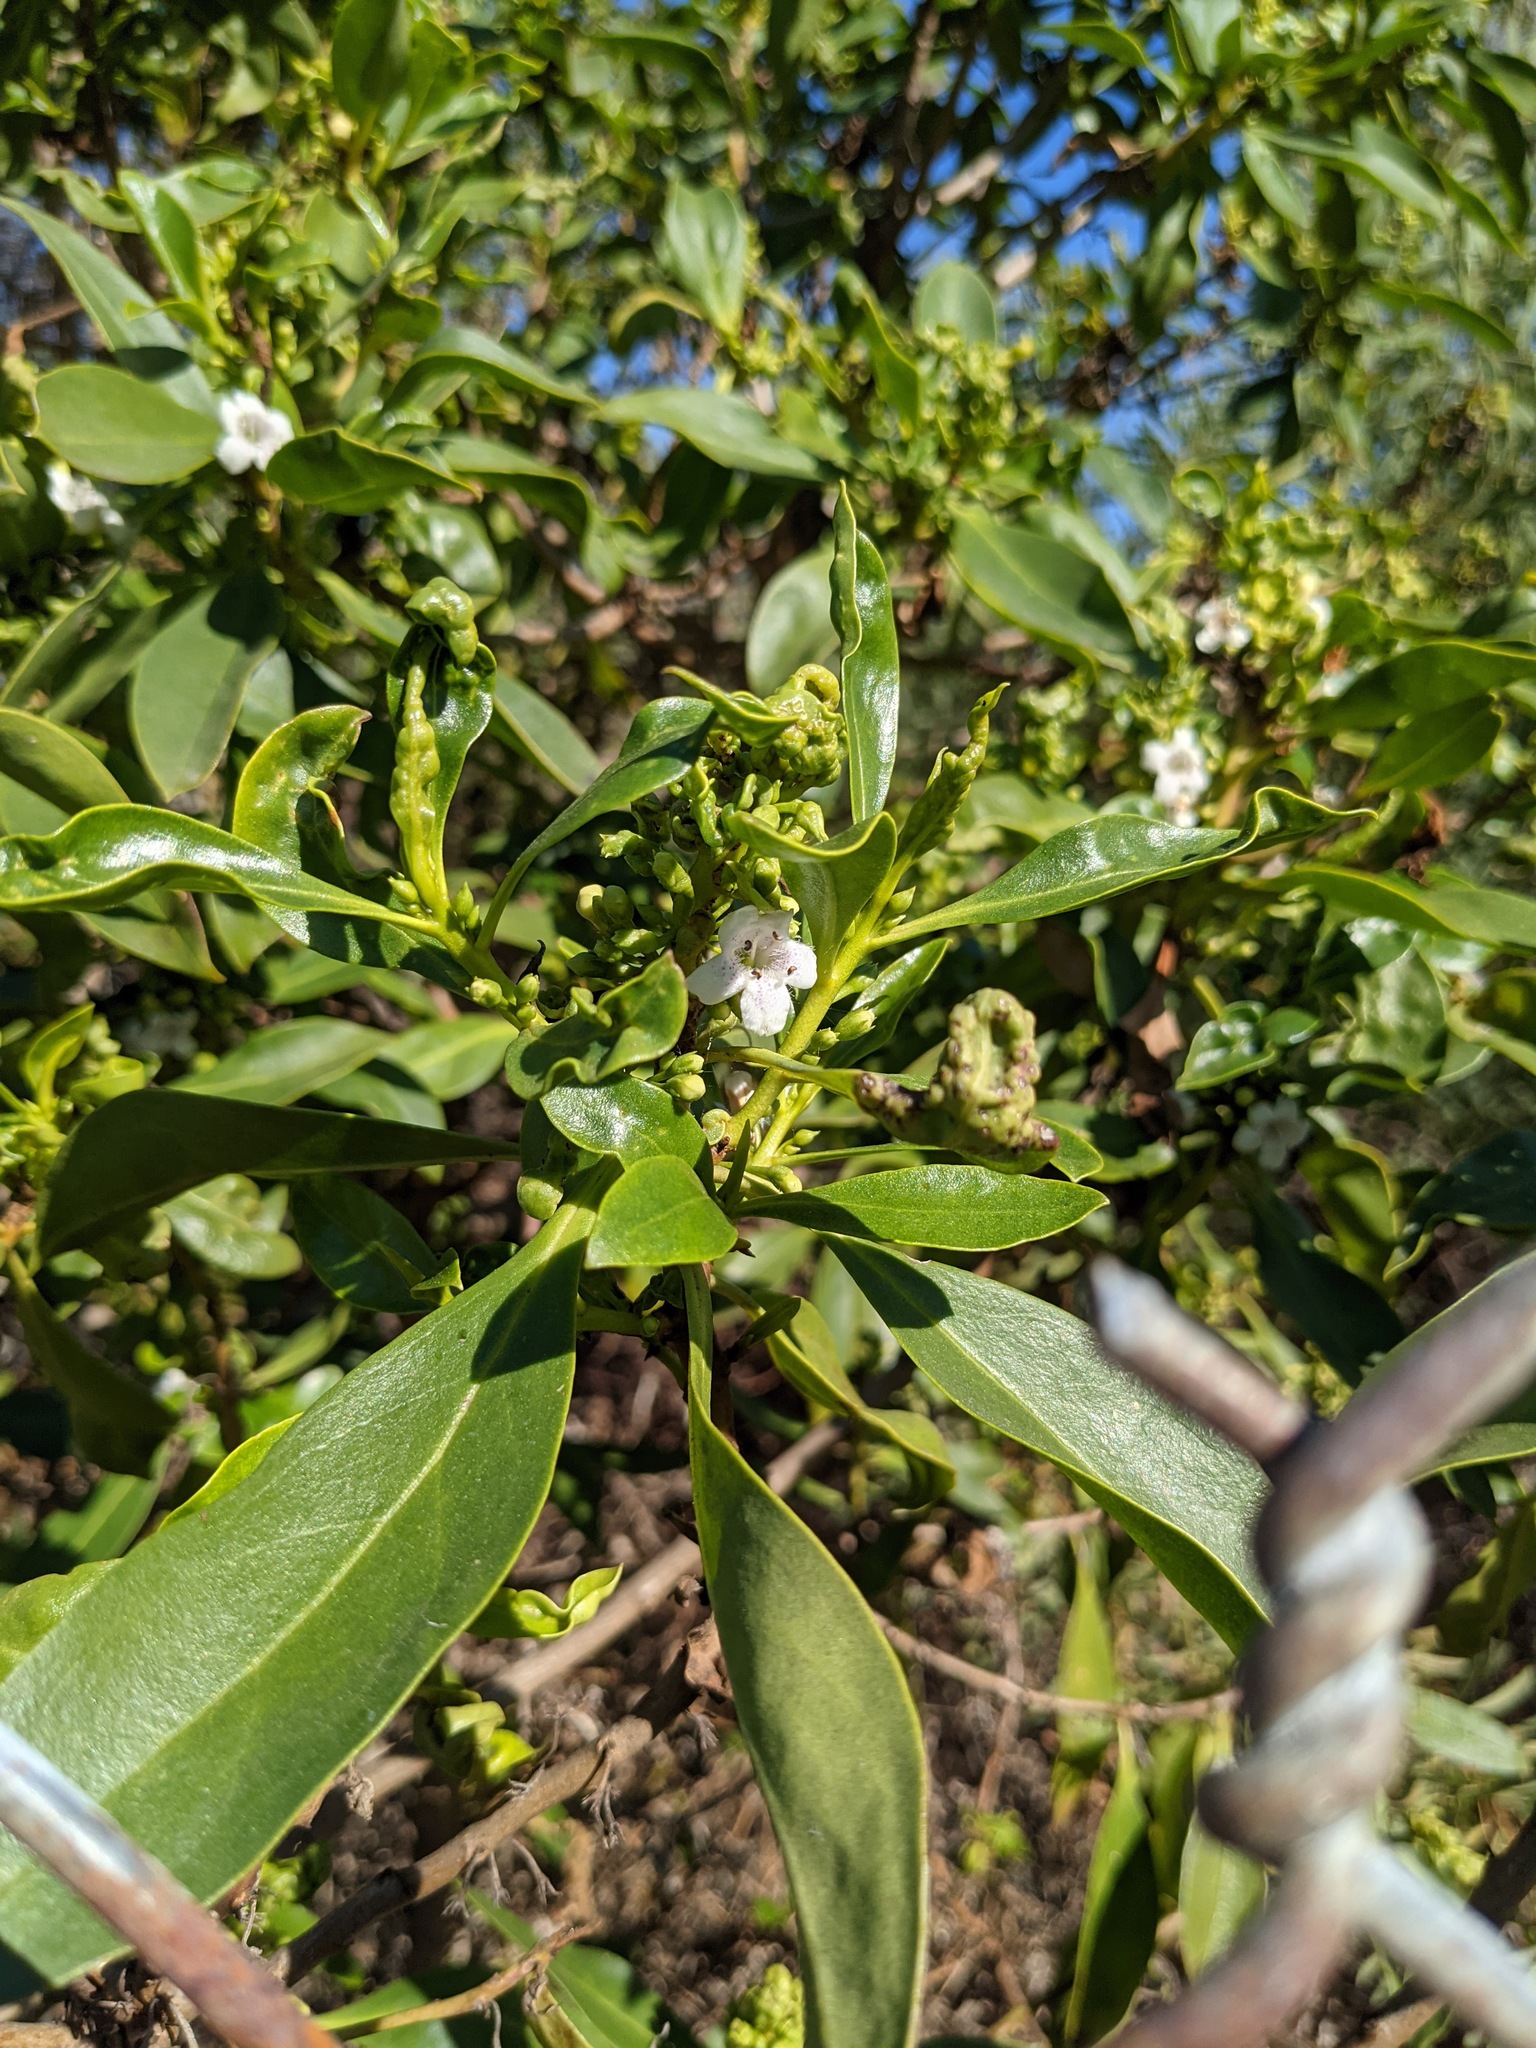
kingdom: Plantae
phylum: Tracheophyta
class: Magnoliopsida
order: Lamiales
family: Scrophulariaceae
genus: Myoporum
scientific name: Myoporum laetum
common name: Ngaio tree
